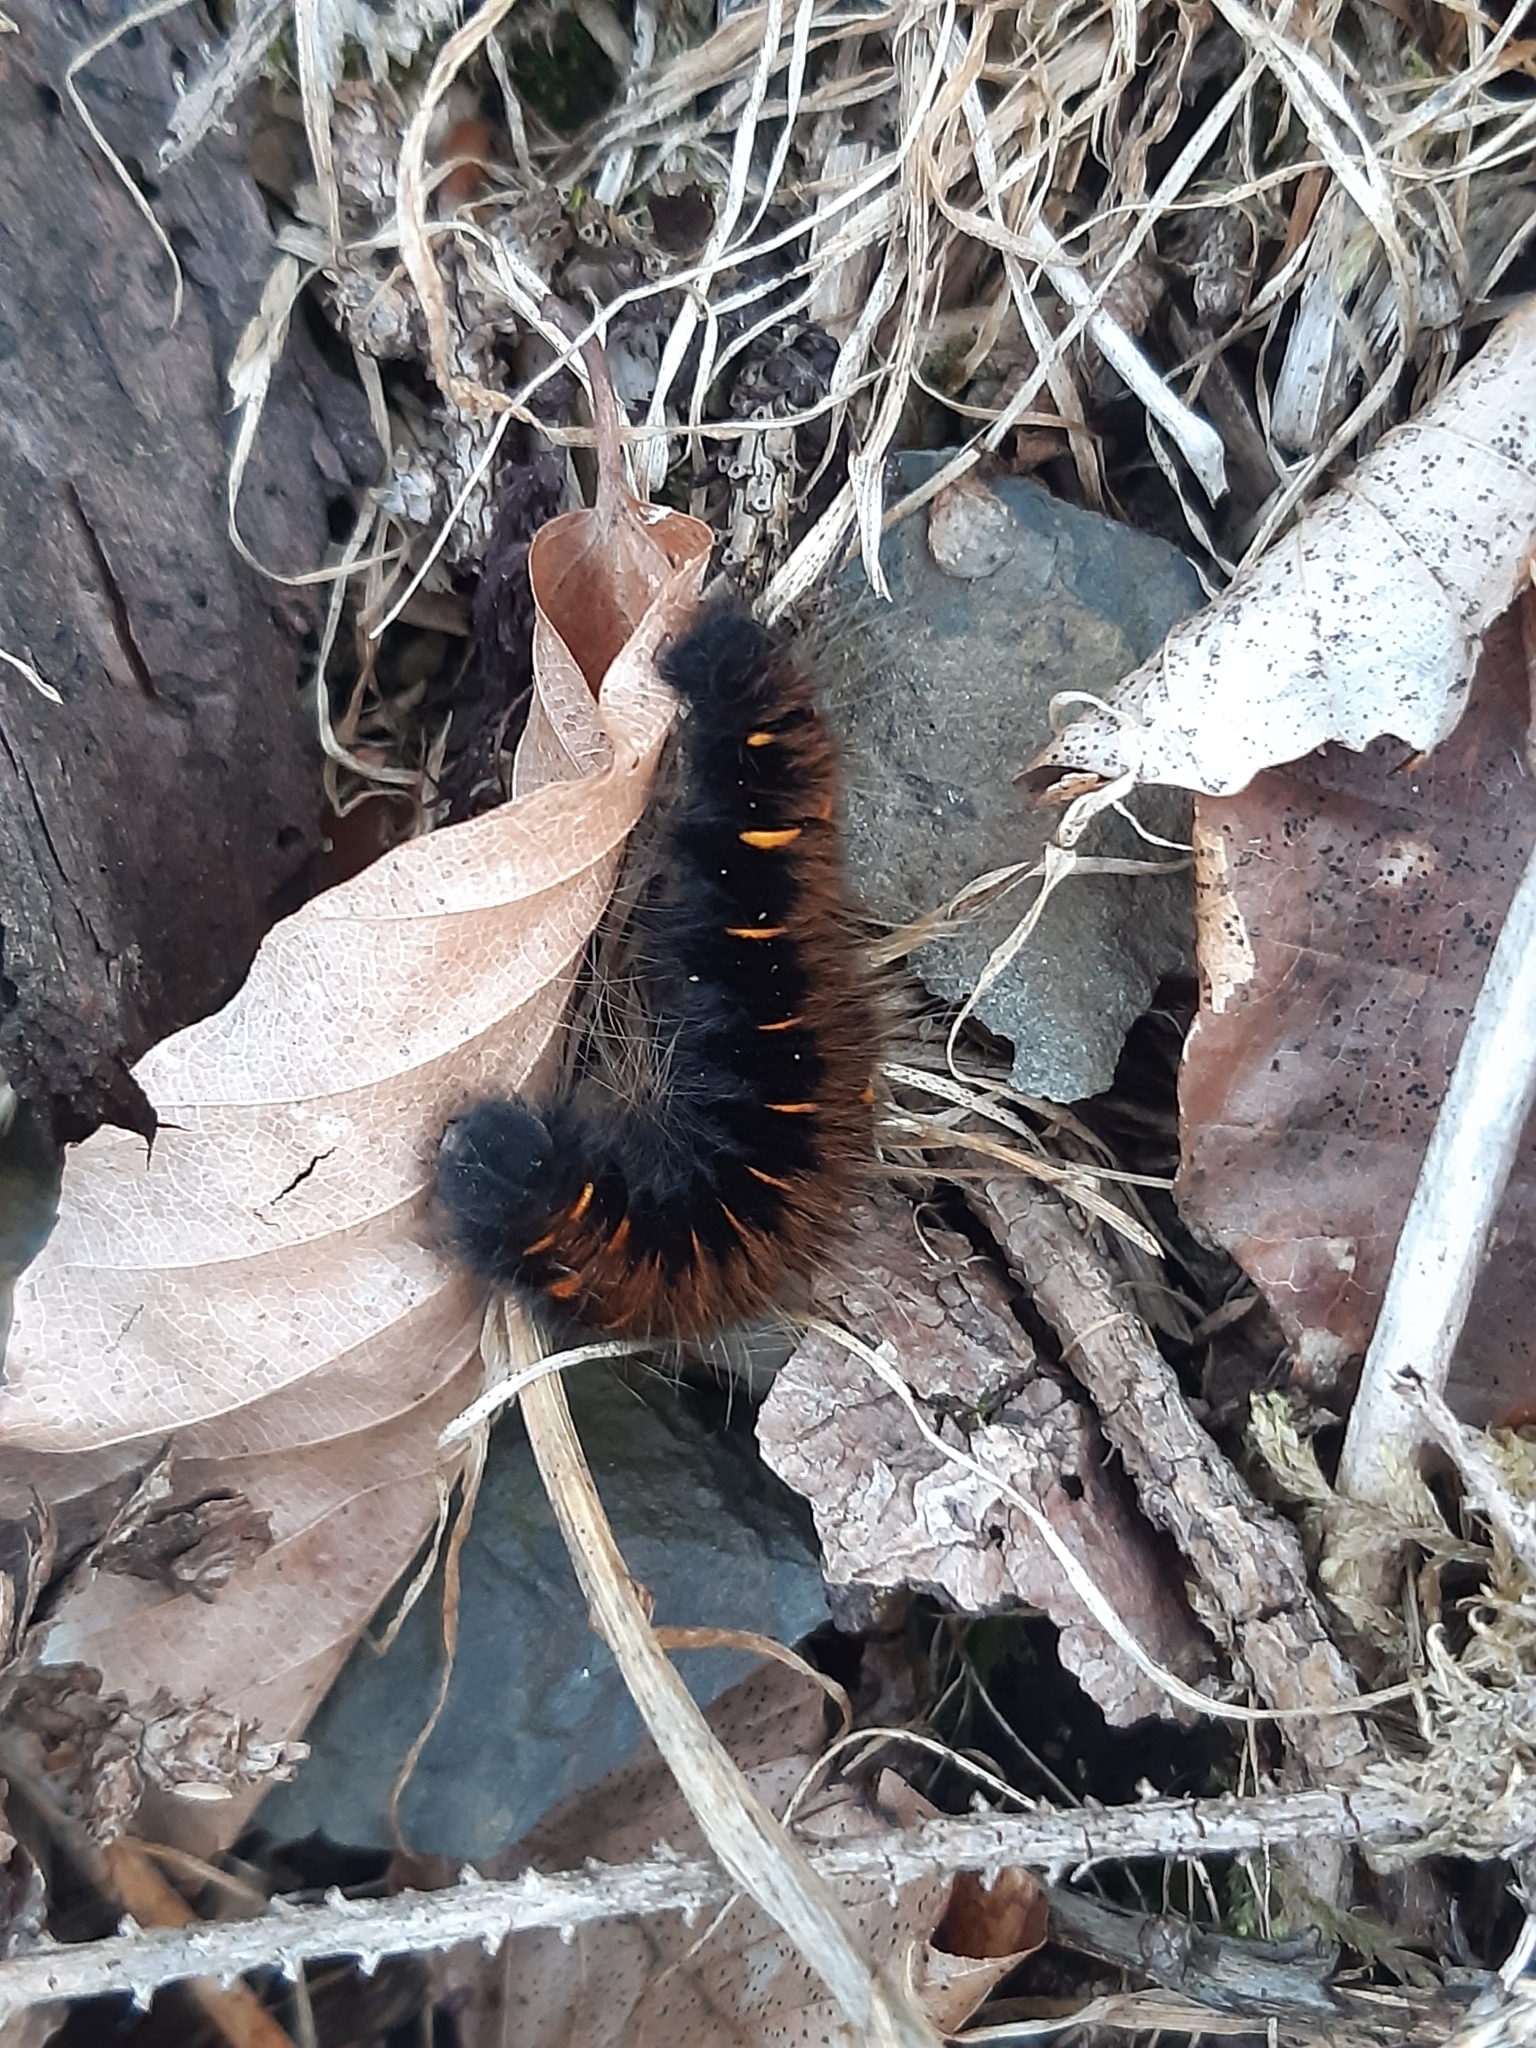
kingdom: Animalia
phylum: Arthropoda
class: Insecta
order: Lepidoptera
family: Lasiocampidae
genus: Macrothylacia
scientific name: Macrothylacia rubi
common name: Fox moth
